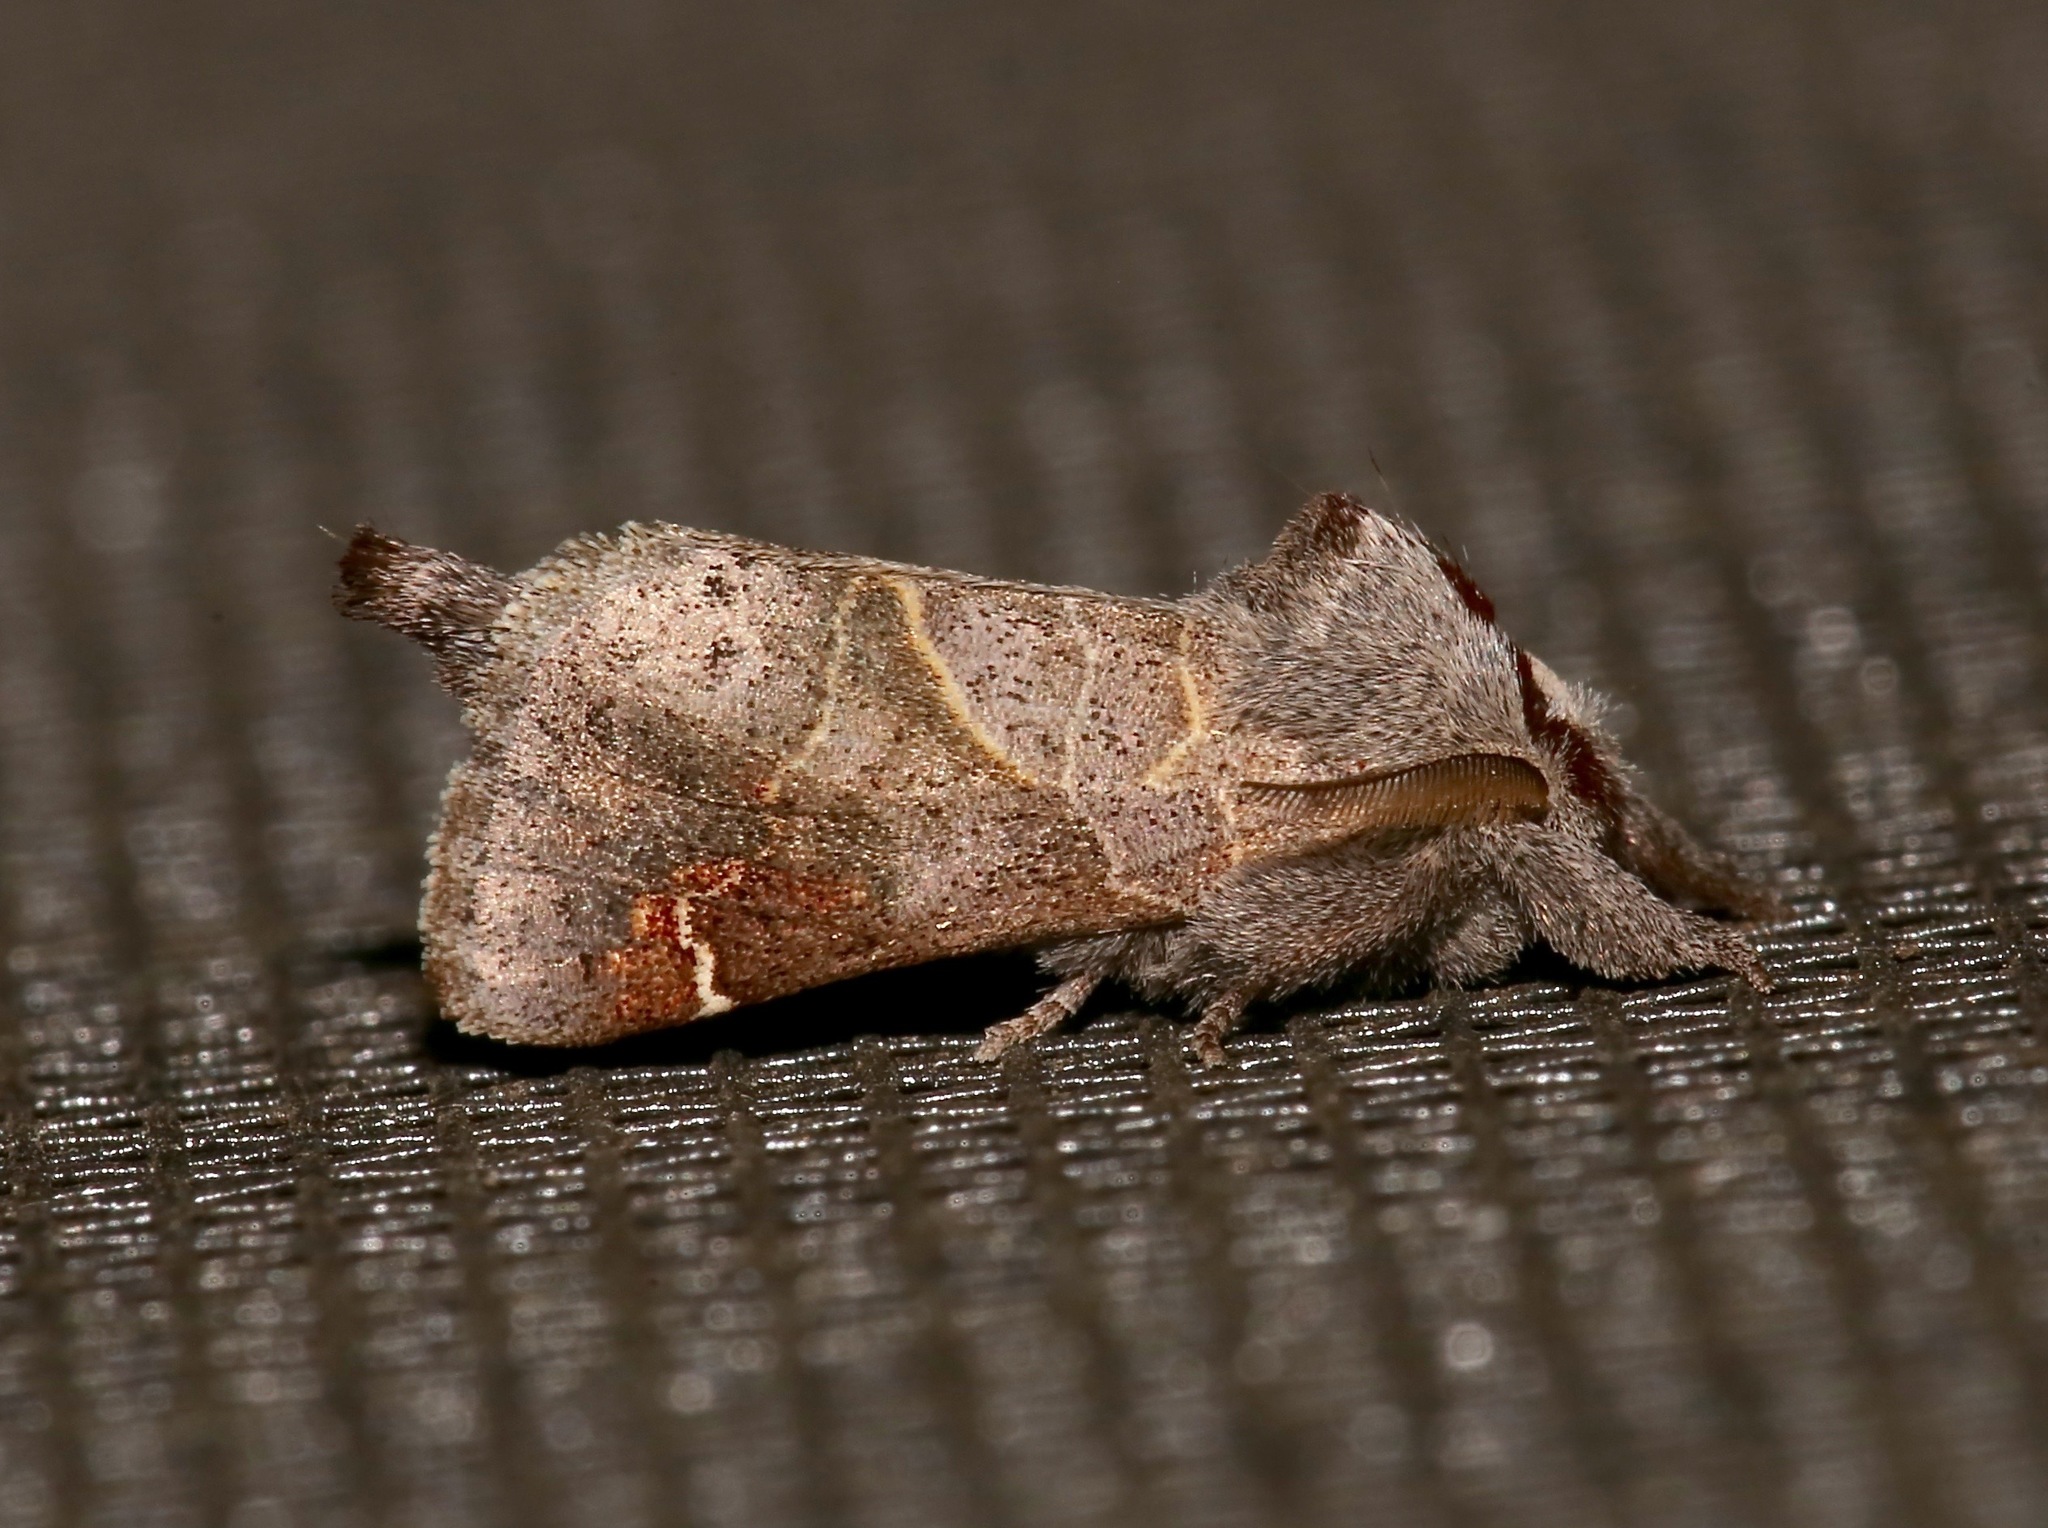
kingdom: Animalia
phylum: Arthropoda
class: Insecta
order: Lepidoptera
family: Notodontidae
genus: Clostera
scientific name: Clostera apicalis
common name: Apical prominent
